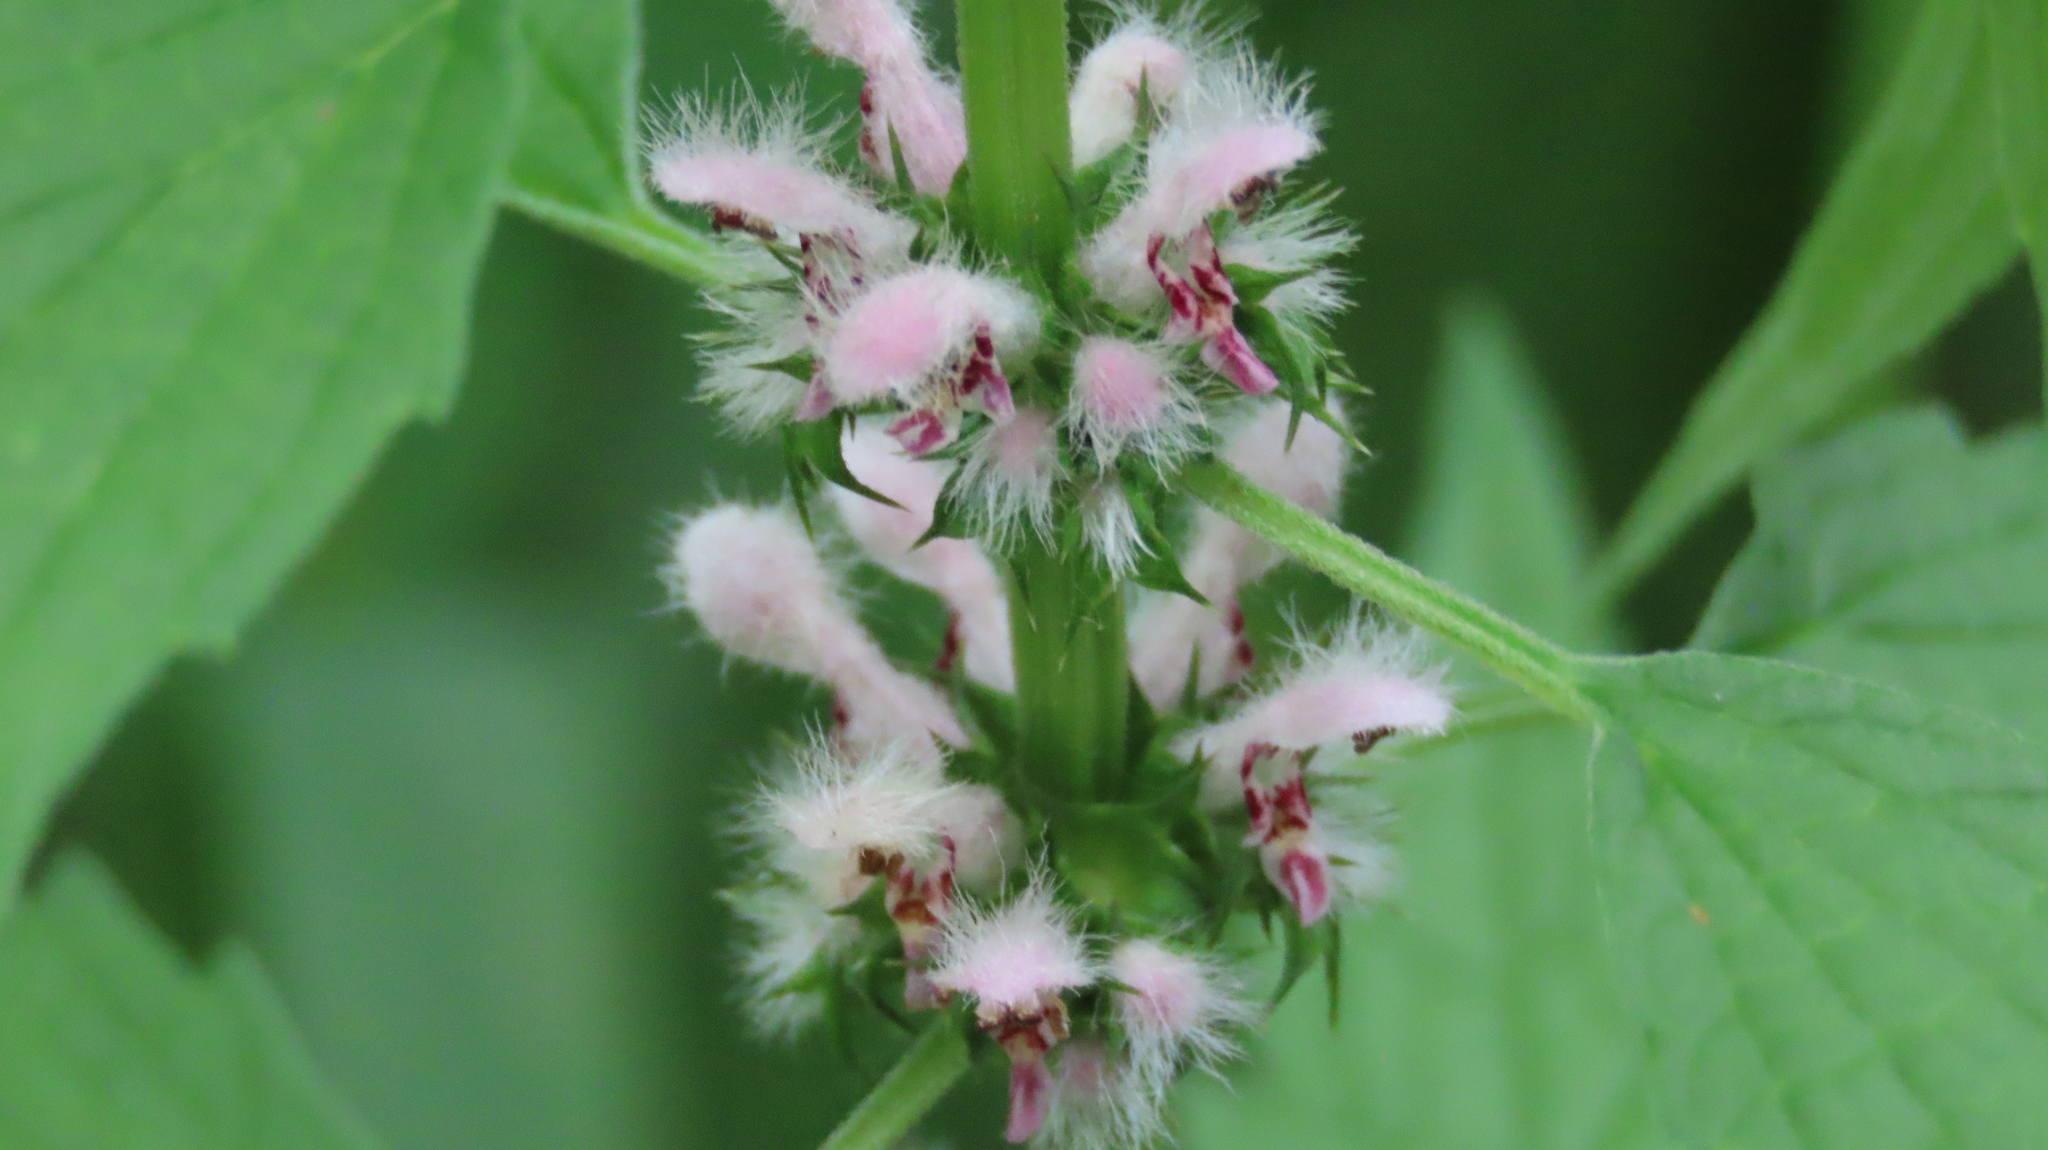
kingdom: Plantae
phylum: Tracheophyta
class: Magnoliopsida
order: Lamiales
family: Lamiaceae
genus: Leonurus
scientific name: Leonurus cardiaca
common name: Motherwort
